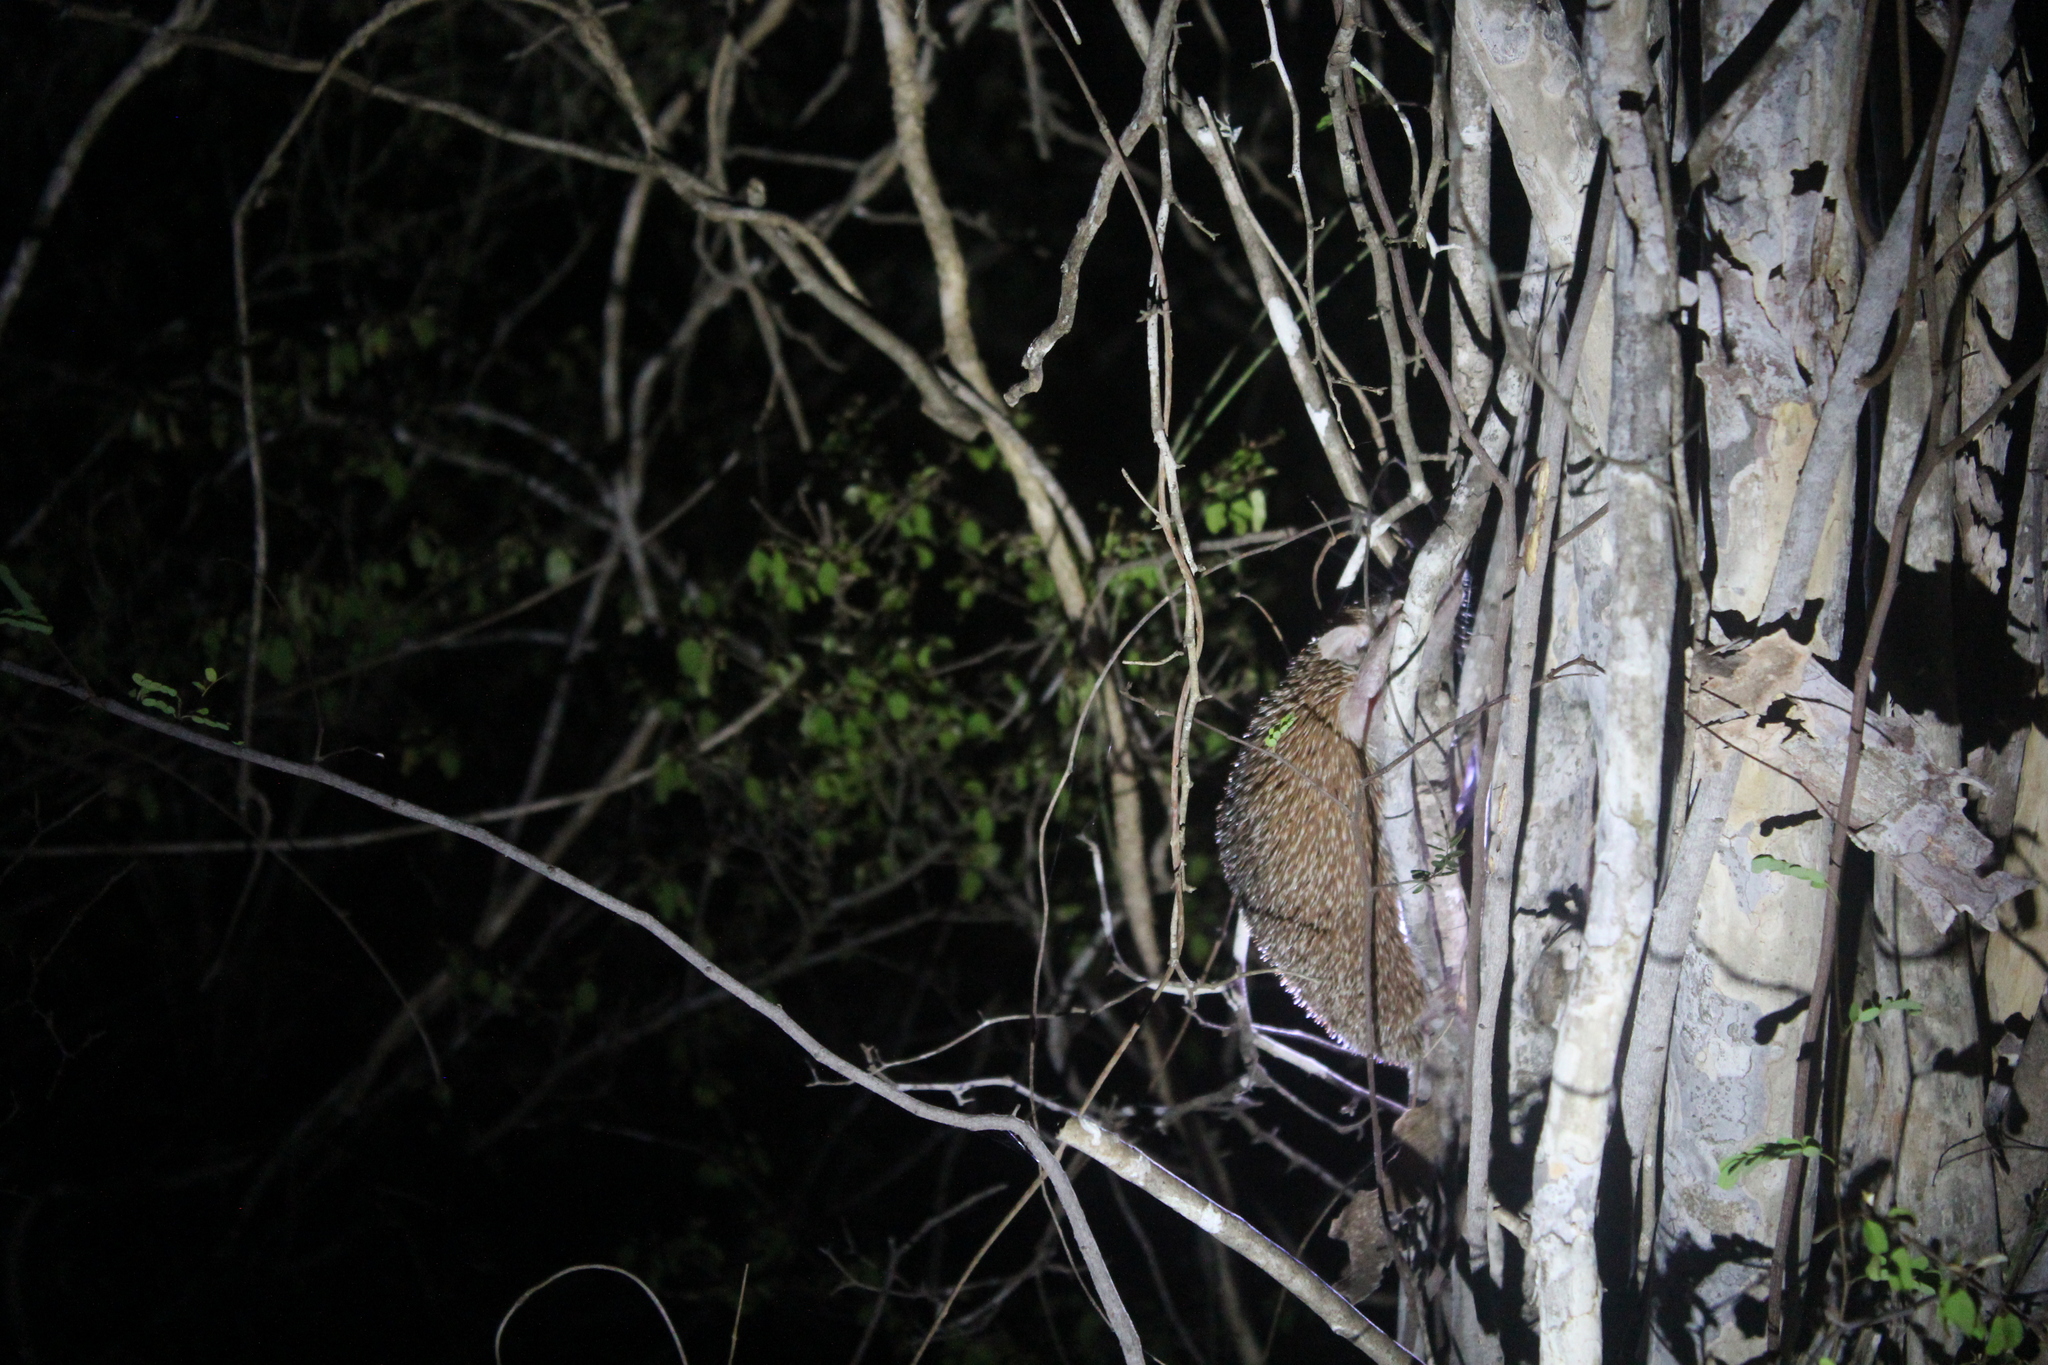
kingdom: Animalia
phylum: Chordata
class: Mammalia
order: Afrosoricida
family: Tenrecidae
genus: Echinops
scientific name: Echinops telfairi
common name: Lesser hedgehog tenrec
